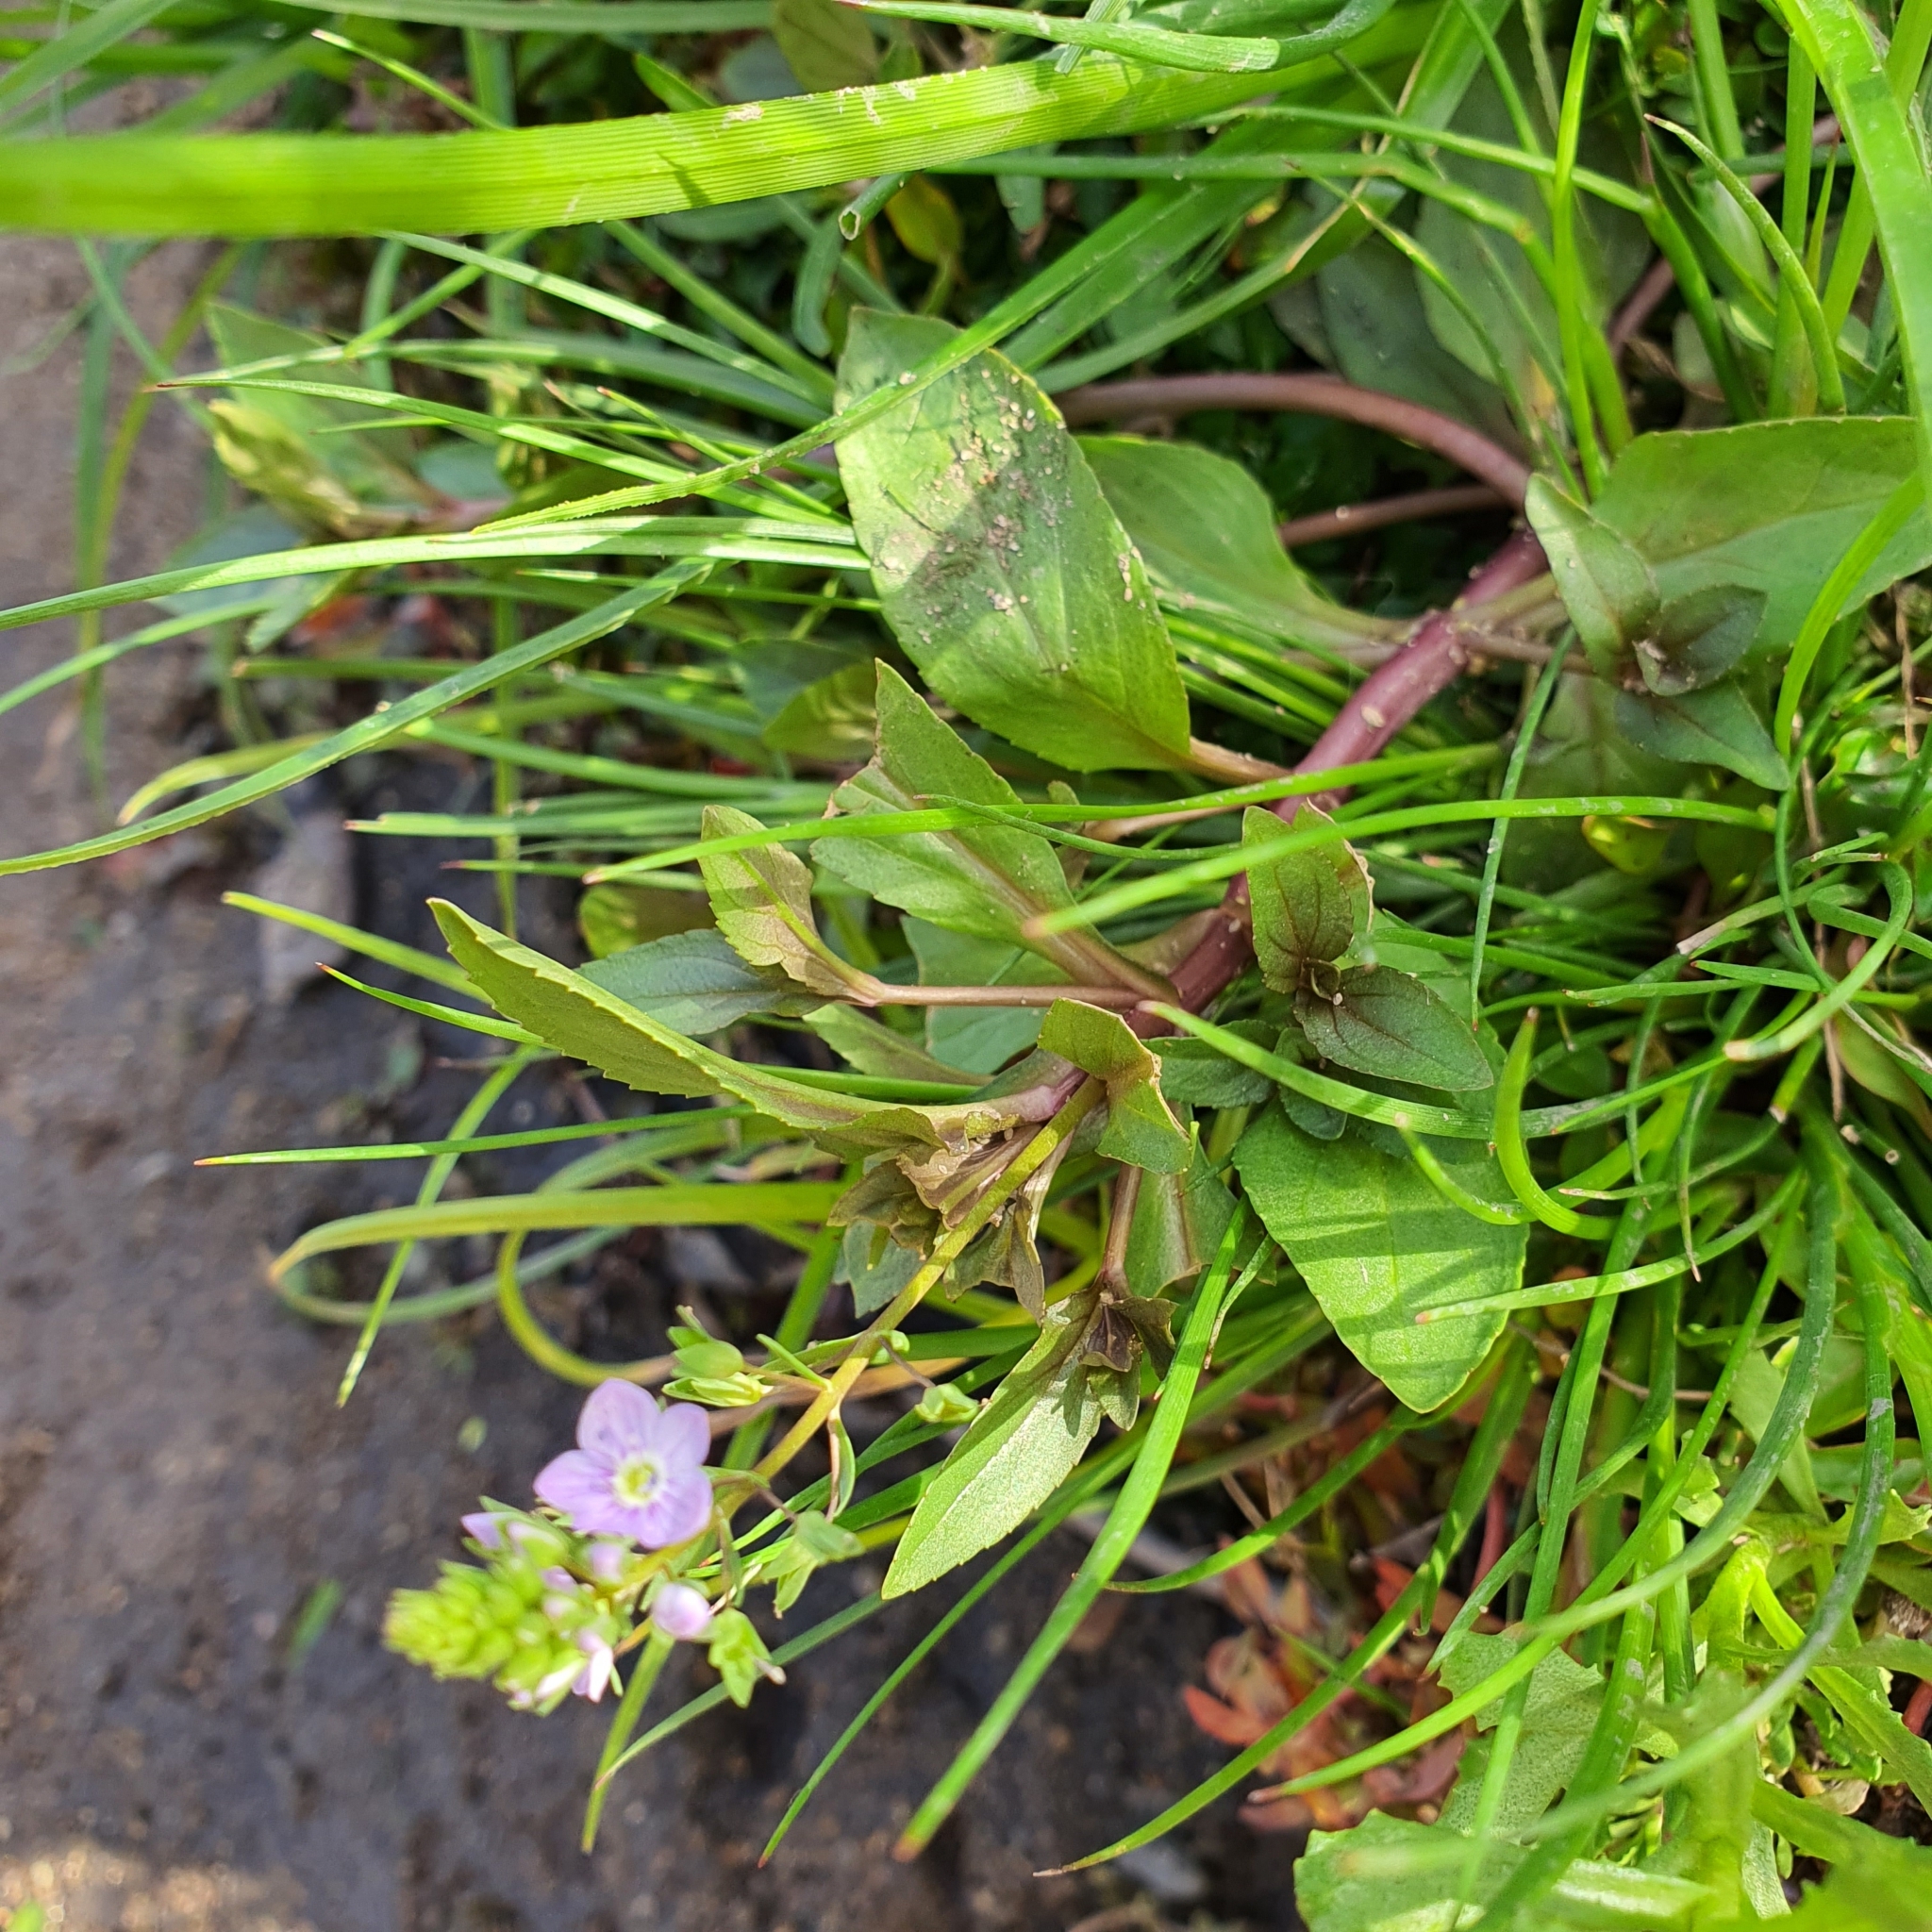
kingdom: Plantae
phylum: Tracheophyta
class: Magnoliopsida
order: Lamiales
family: Plantaginaceae
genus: Veronica
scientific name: Veronica anagallis-aquatica
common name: Water speedwell
